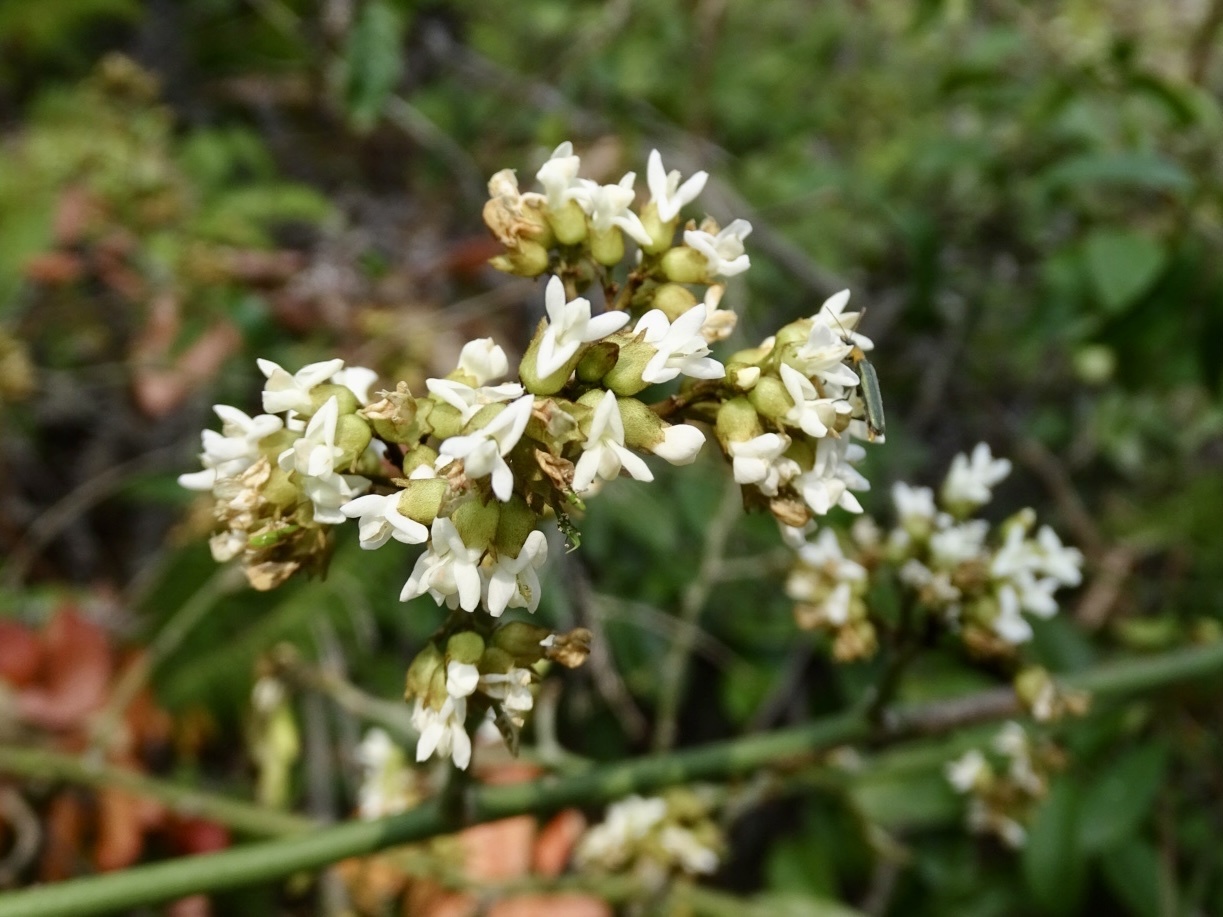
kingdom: Plantae
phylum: Tracheophyta
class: Magnoliopsida
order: Fabales
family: Fabaceae
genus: Dalbergia
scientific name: Dalbergia benthamii
